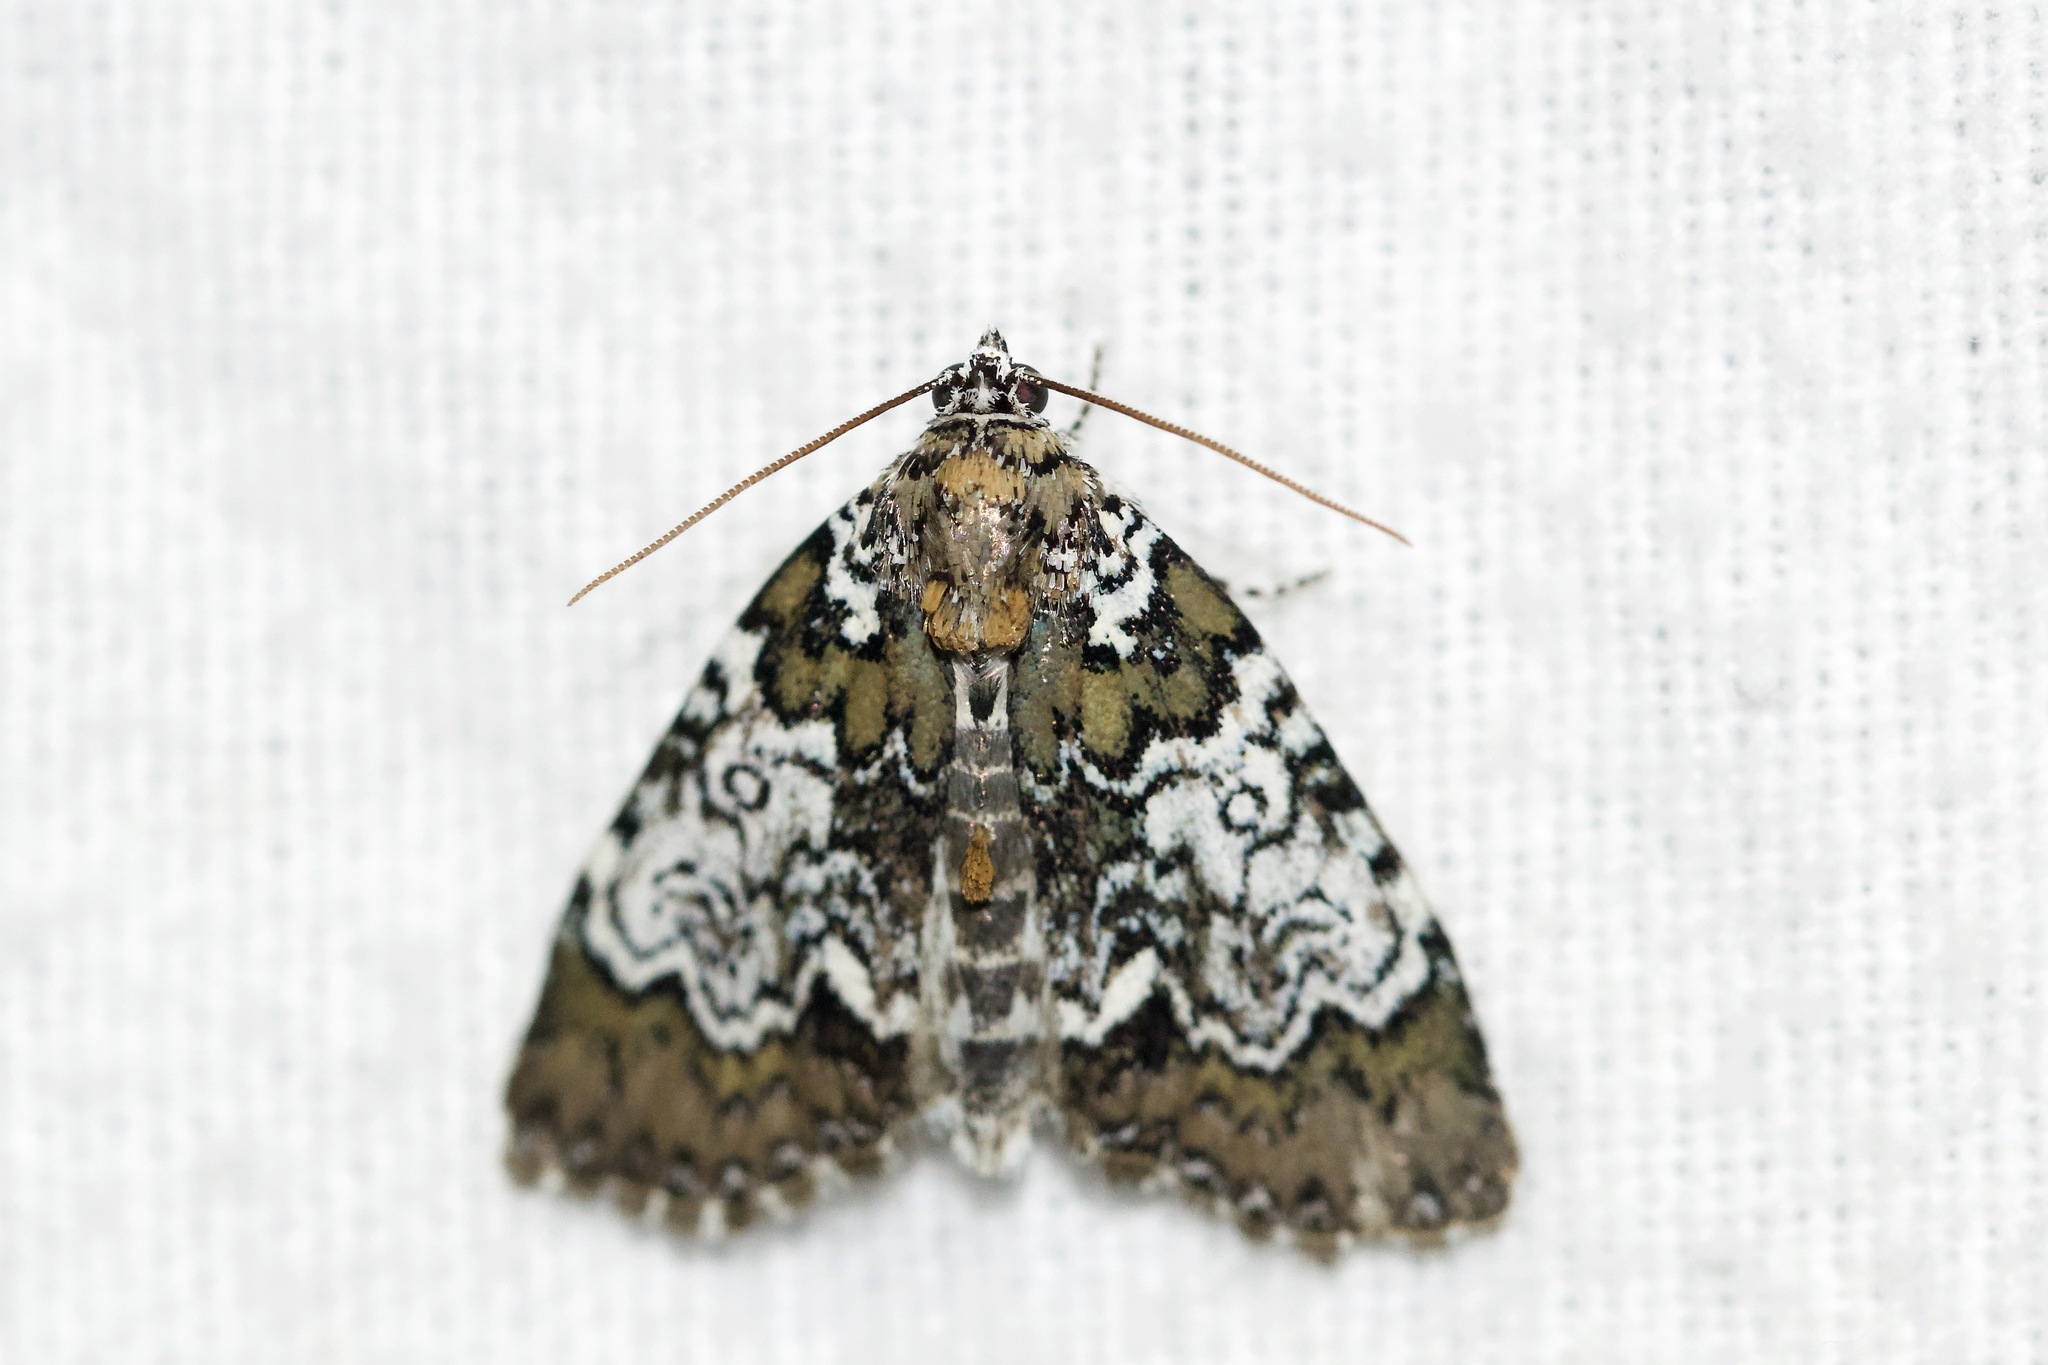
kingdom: Animalia
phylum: Arthropoda
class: Insecta
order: Lepidoptera
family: Noctuidae
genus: Cerma
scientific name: Cerma cora
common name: Bird dropping moth
